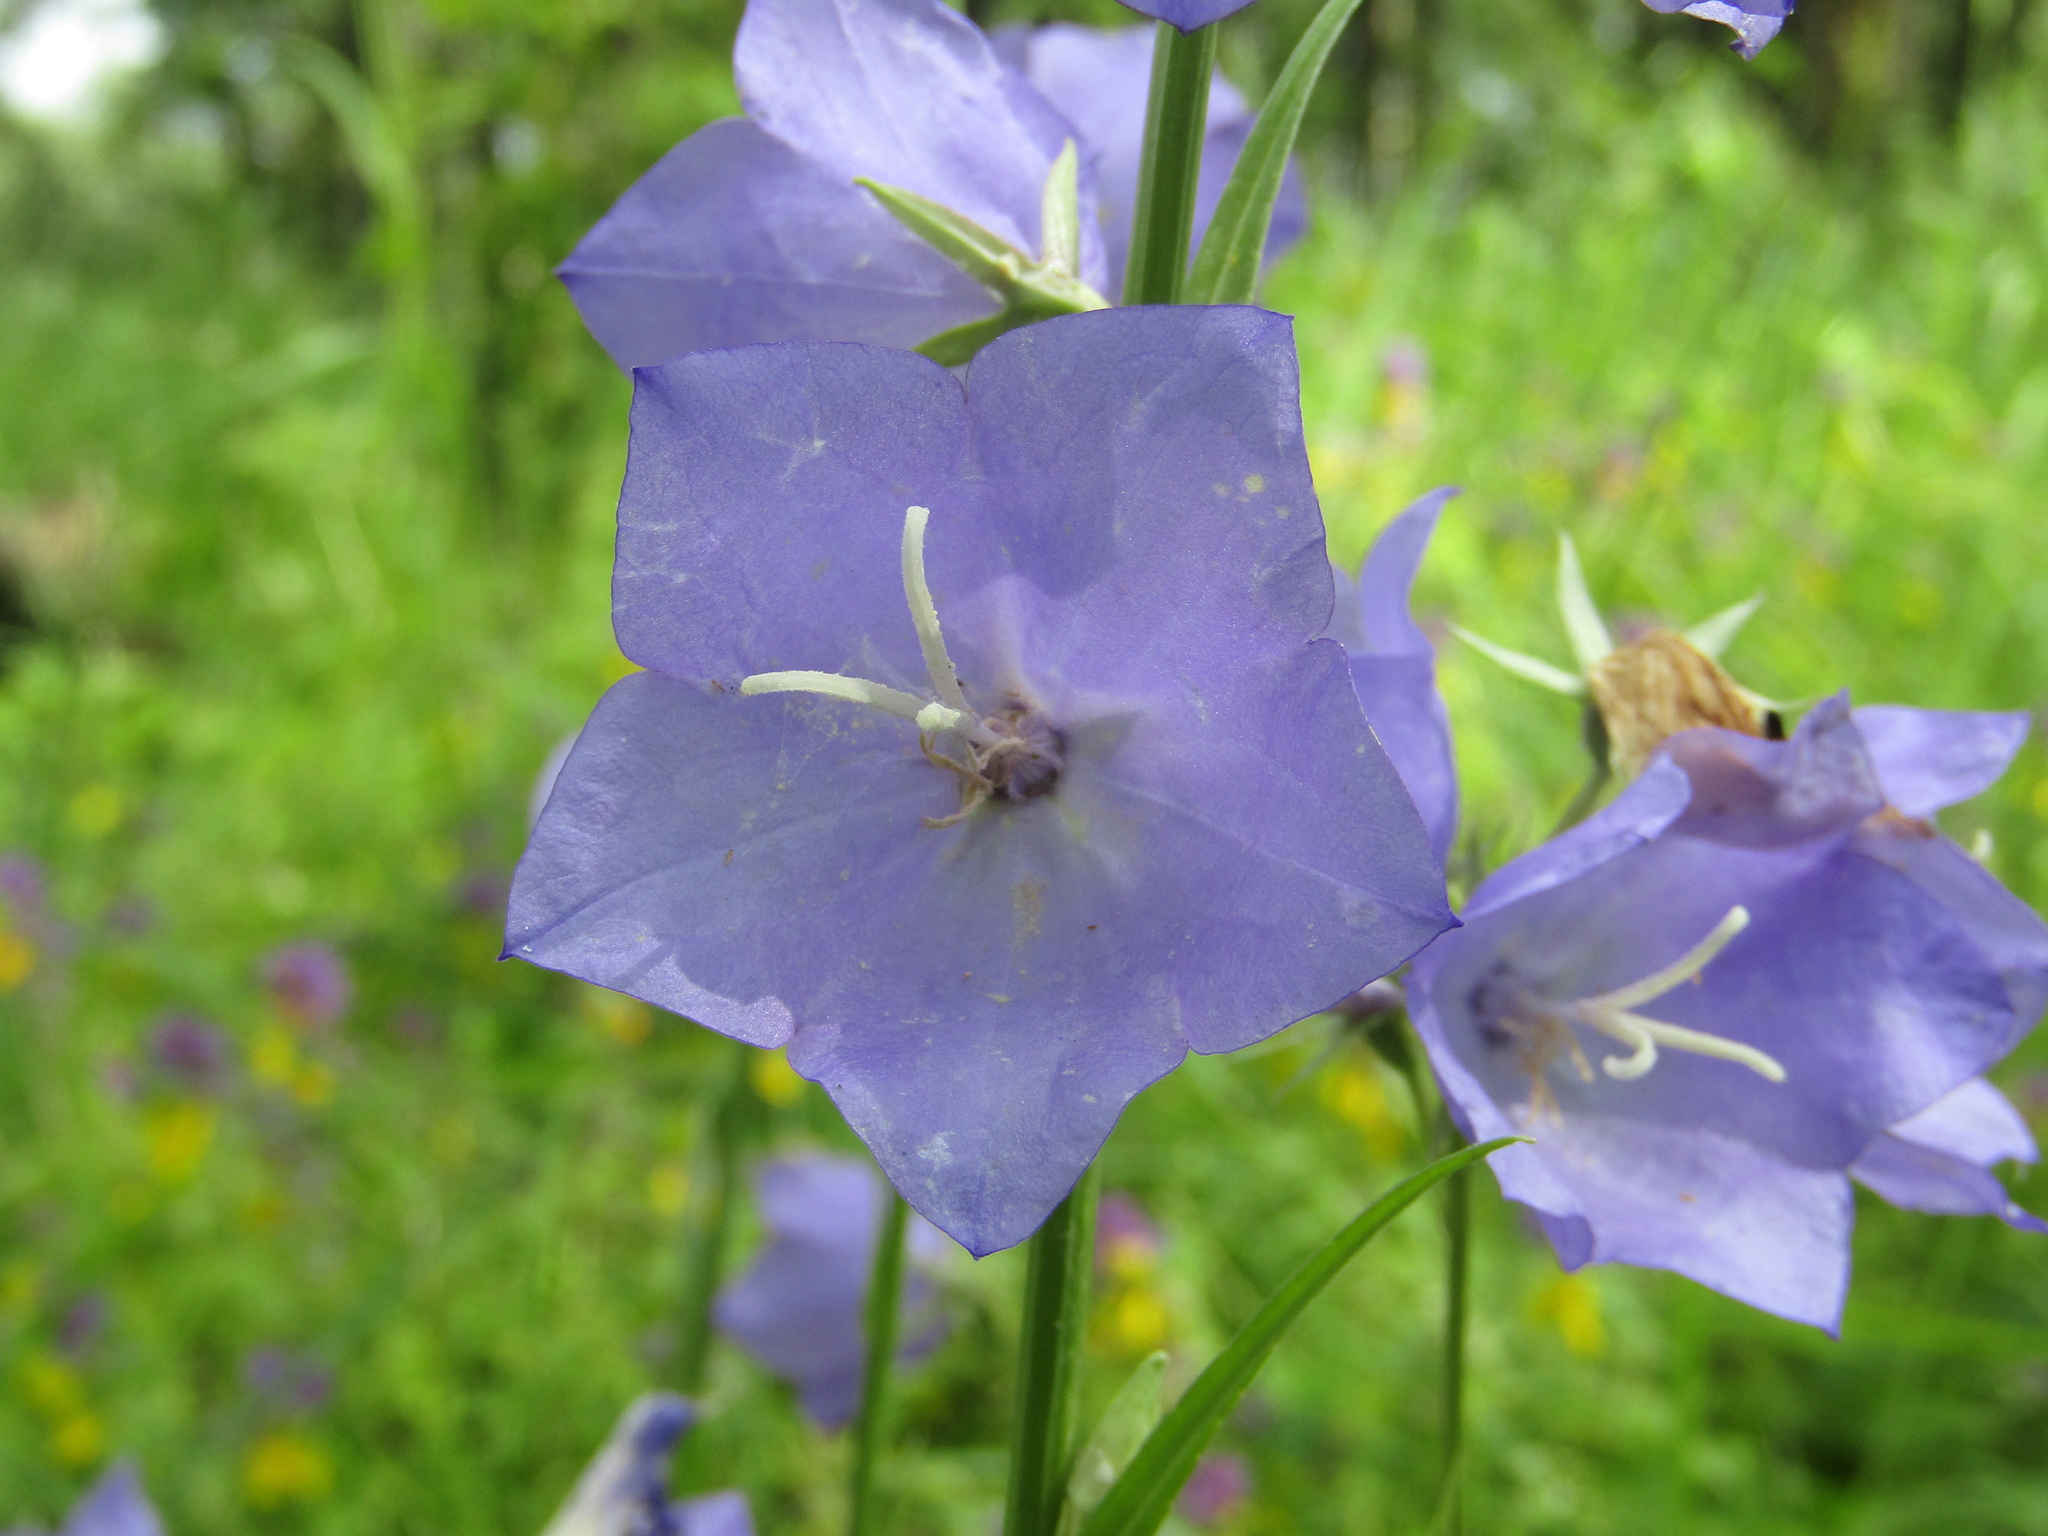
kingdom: Plantae
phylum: Tracheophyta
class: Magnoliopsida
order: Asterales
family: Campanulaceae
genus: Campanula
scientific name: Campanula persicifolia
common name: Peach-leaved bellflower
